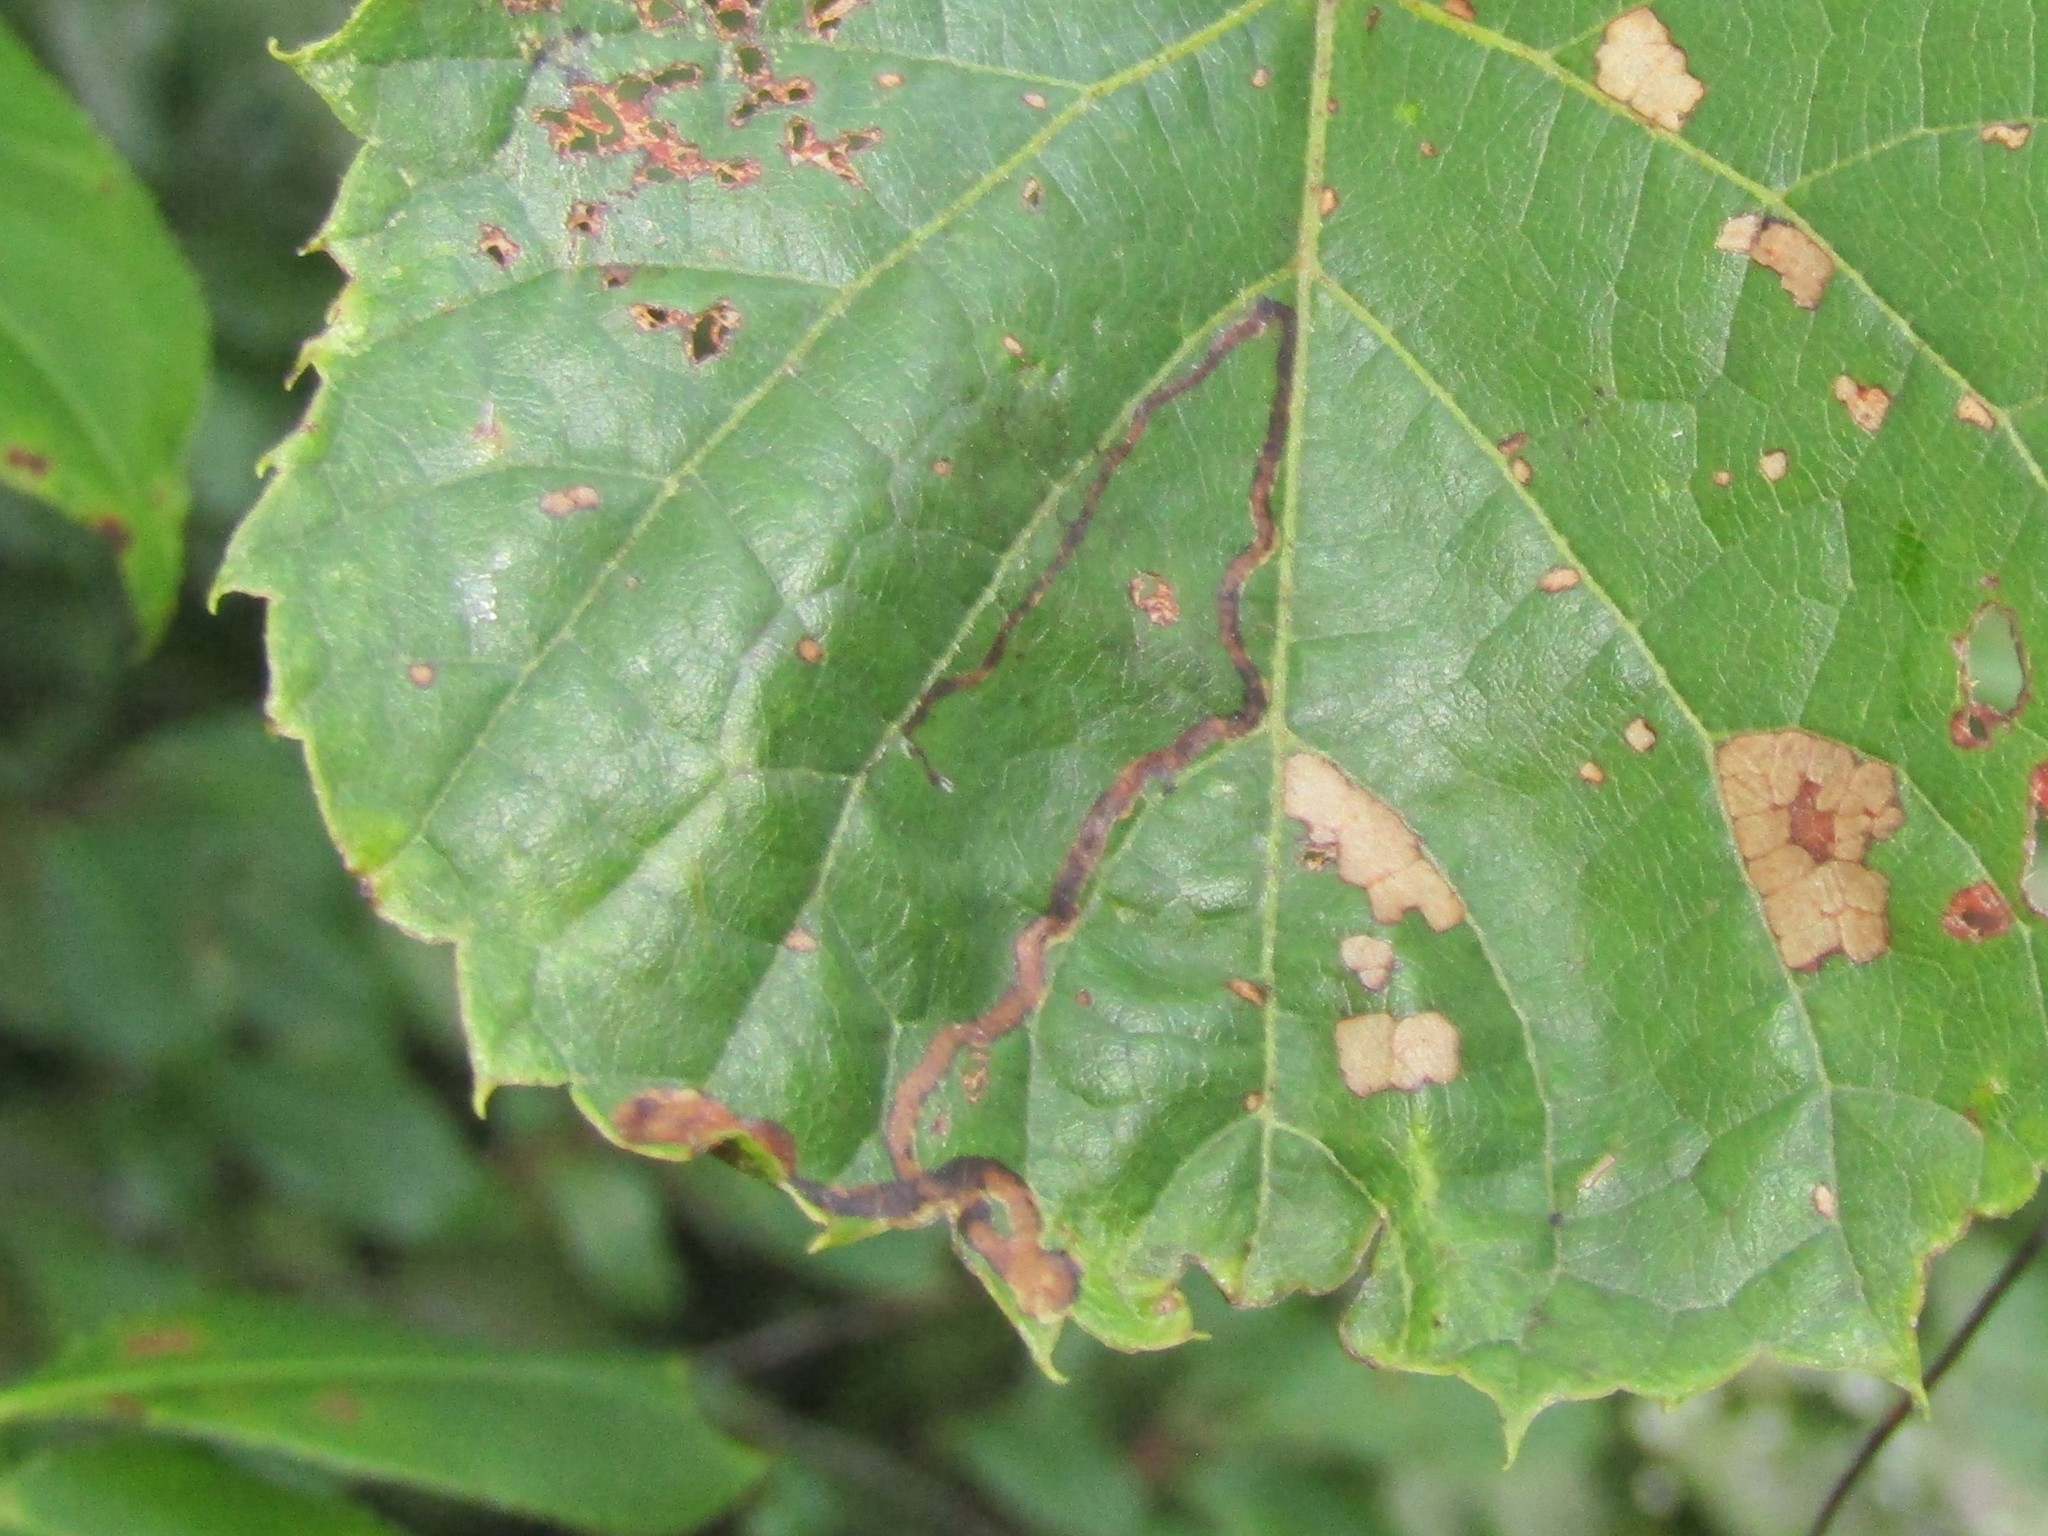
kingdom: Animalia
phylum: Arthropoda
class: Insecta
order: Lepidoptera
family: Gracillariidae
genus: Phyllocnistis
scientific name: Phyllocnistis vitifoliella
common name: Grape leaf-miner moth
